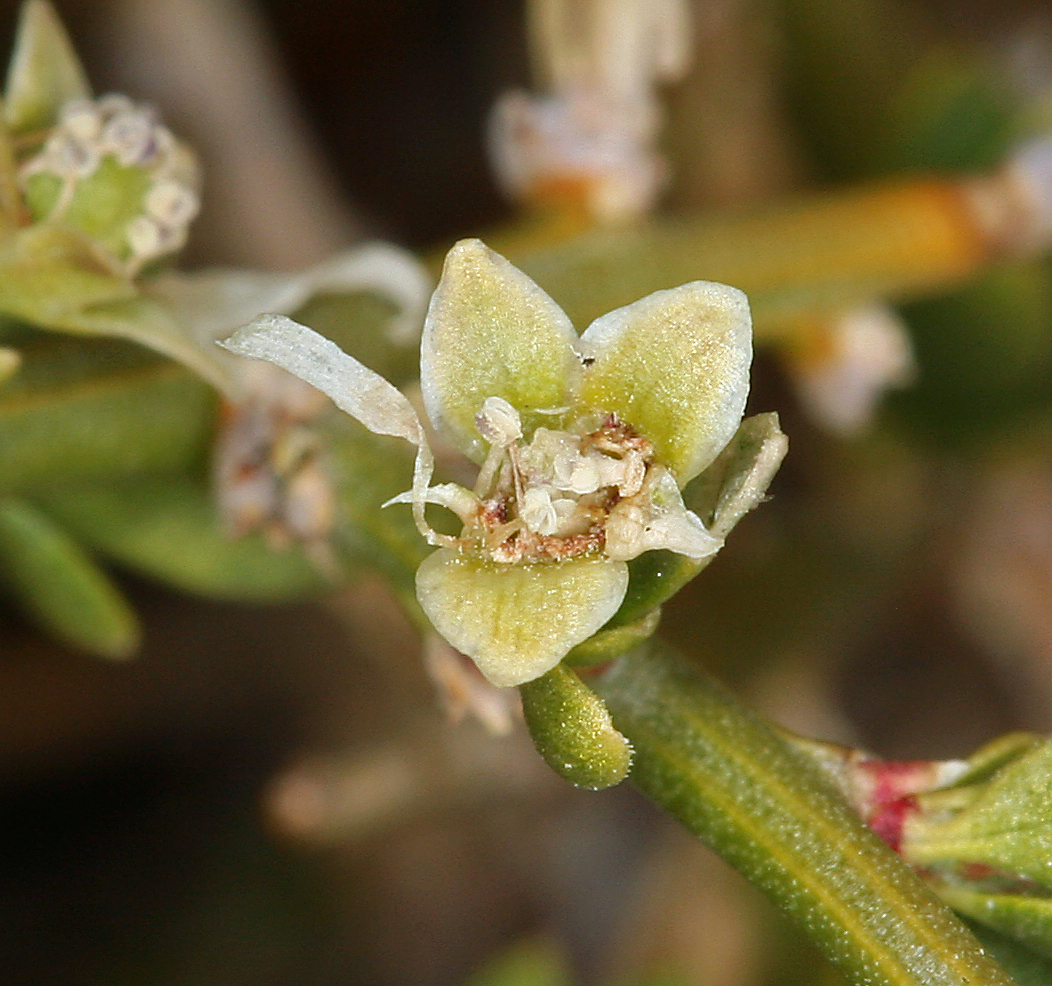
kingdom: Plantae
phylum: Tracheophyta
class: Magnoliopsida
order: Crossosomatales
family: Crossosomataceae
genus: Glossopetalon
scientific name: Glossopetalon spinescens
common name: Spring greasebush
